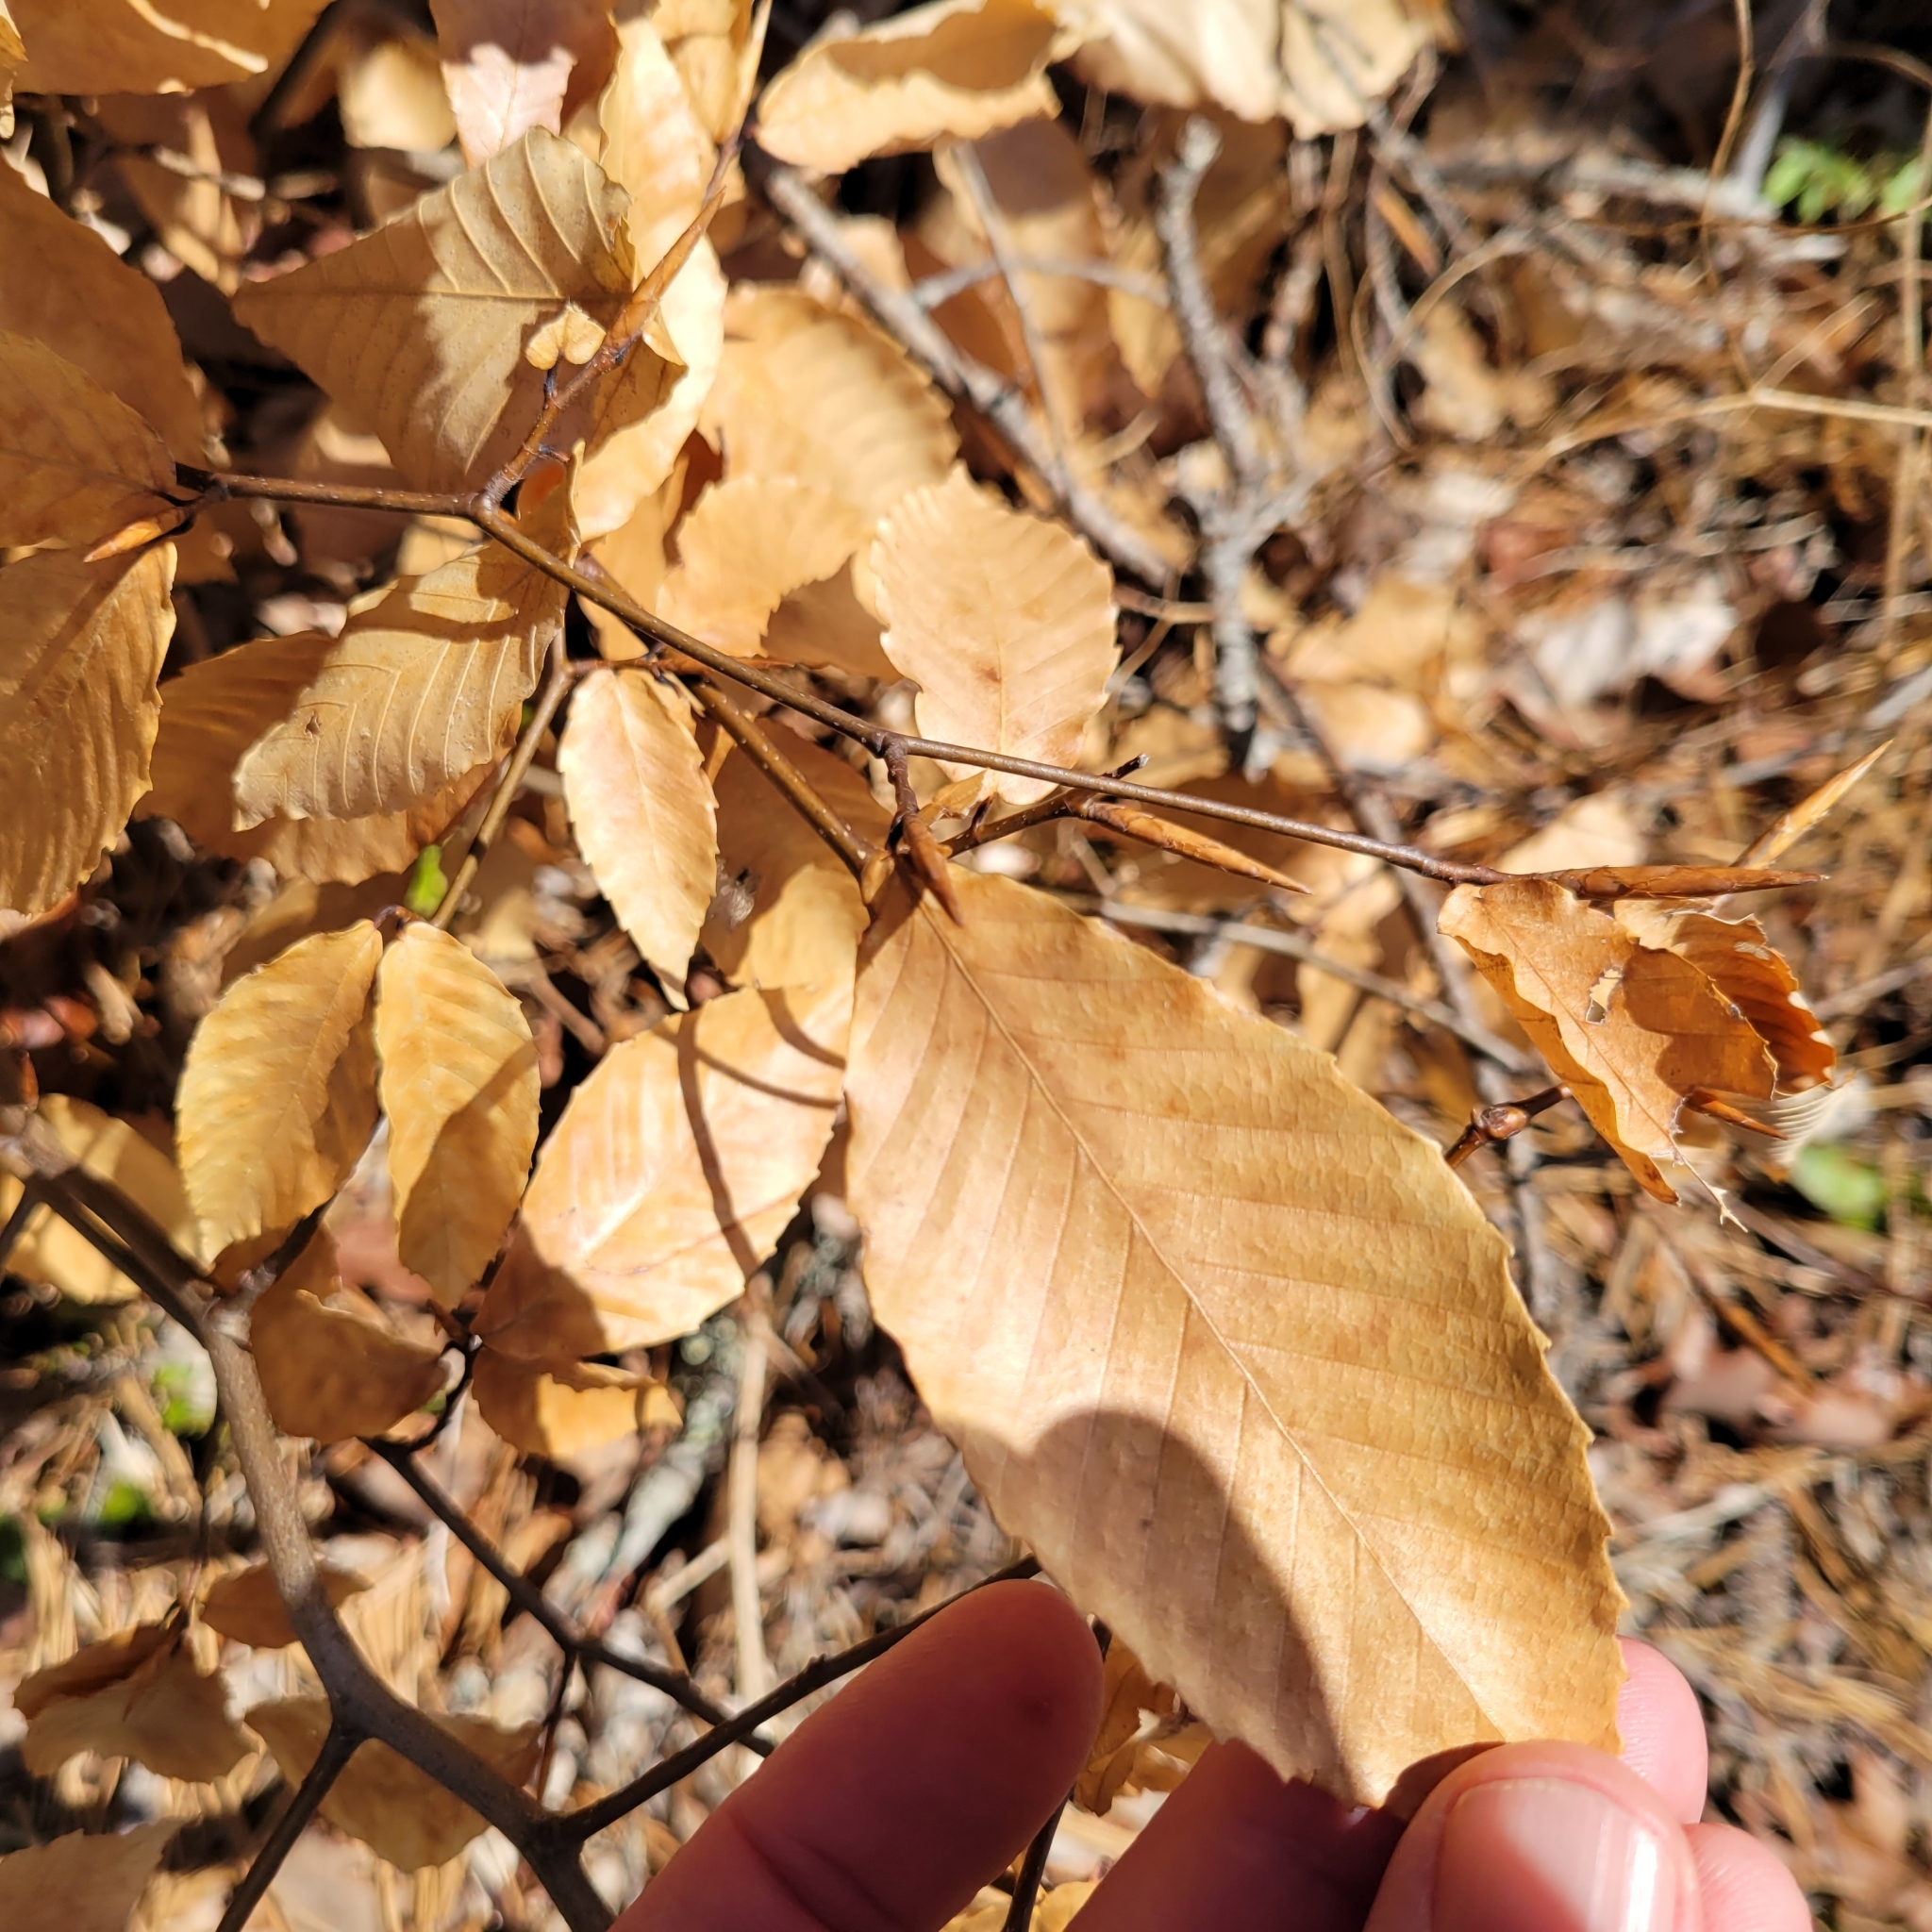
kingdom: Plantae
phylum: Tracheophyta
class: Magnoliopsida
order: Fagales
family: Fagaceae
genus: Fagus
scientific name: Fagus grandifolia
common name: American beech
